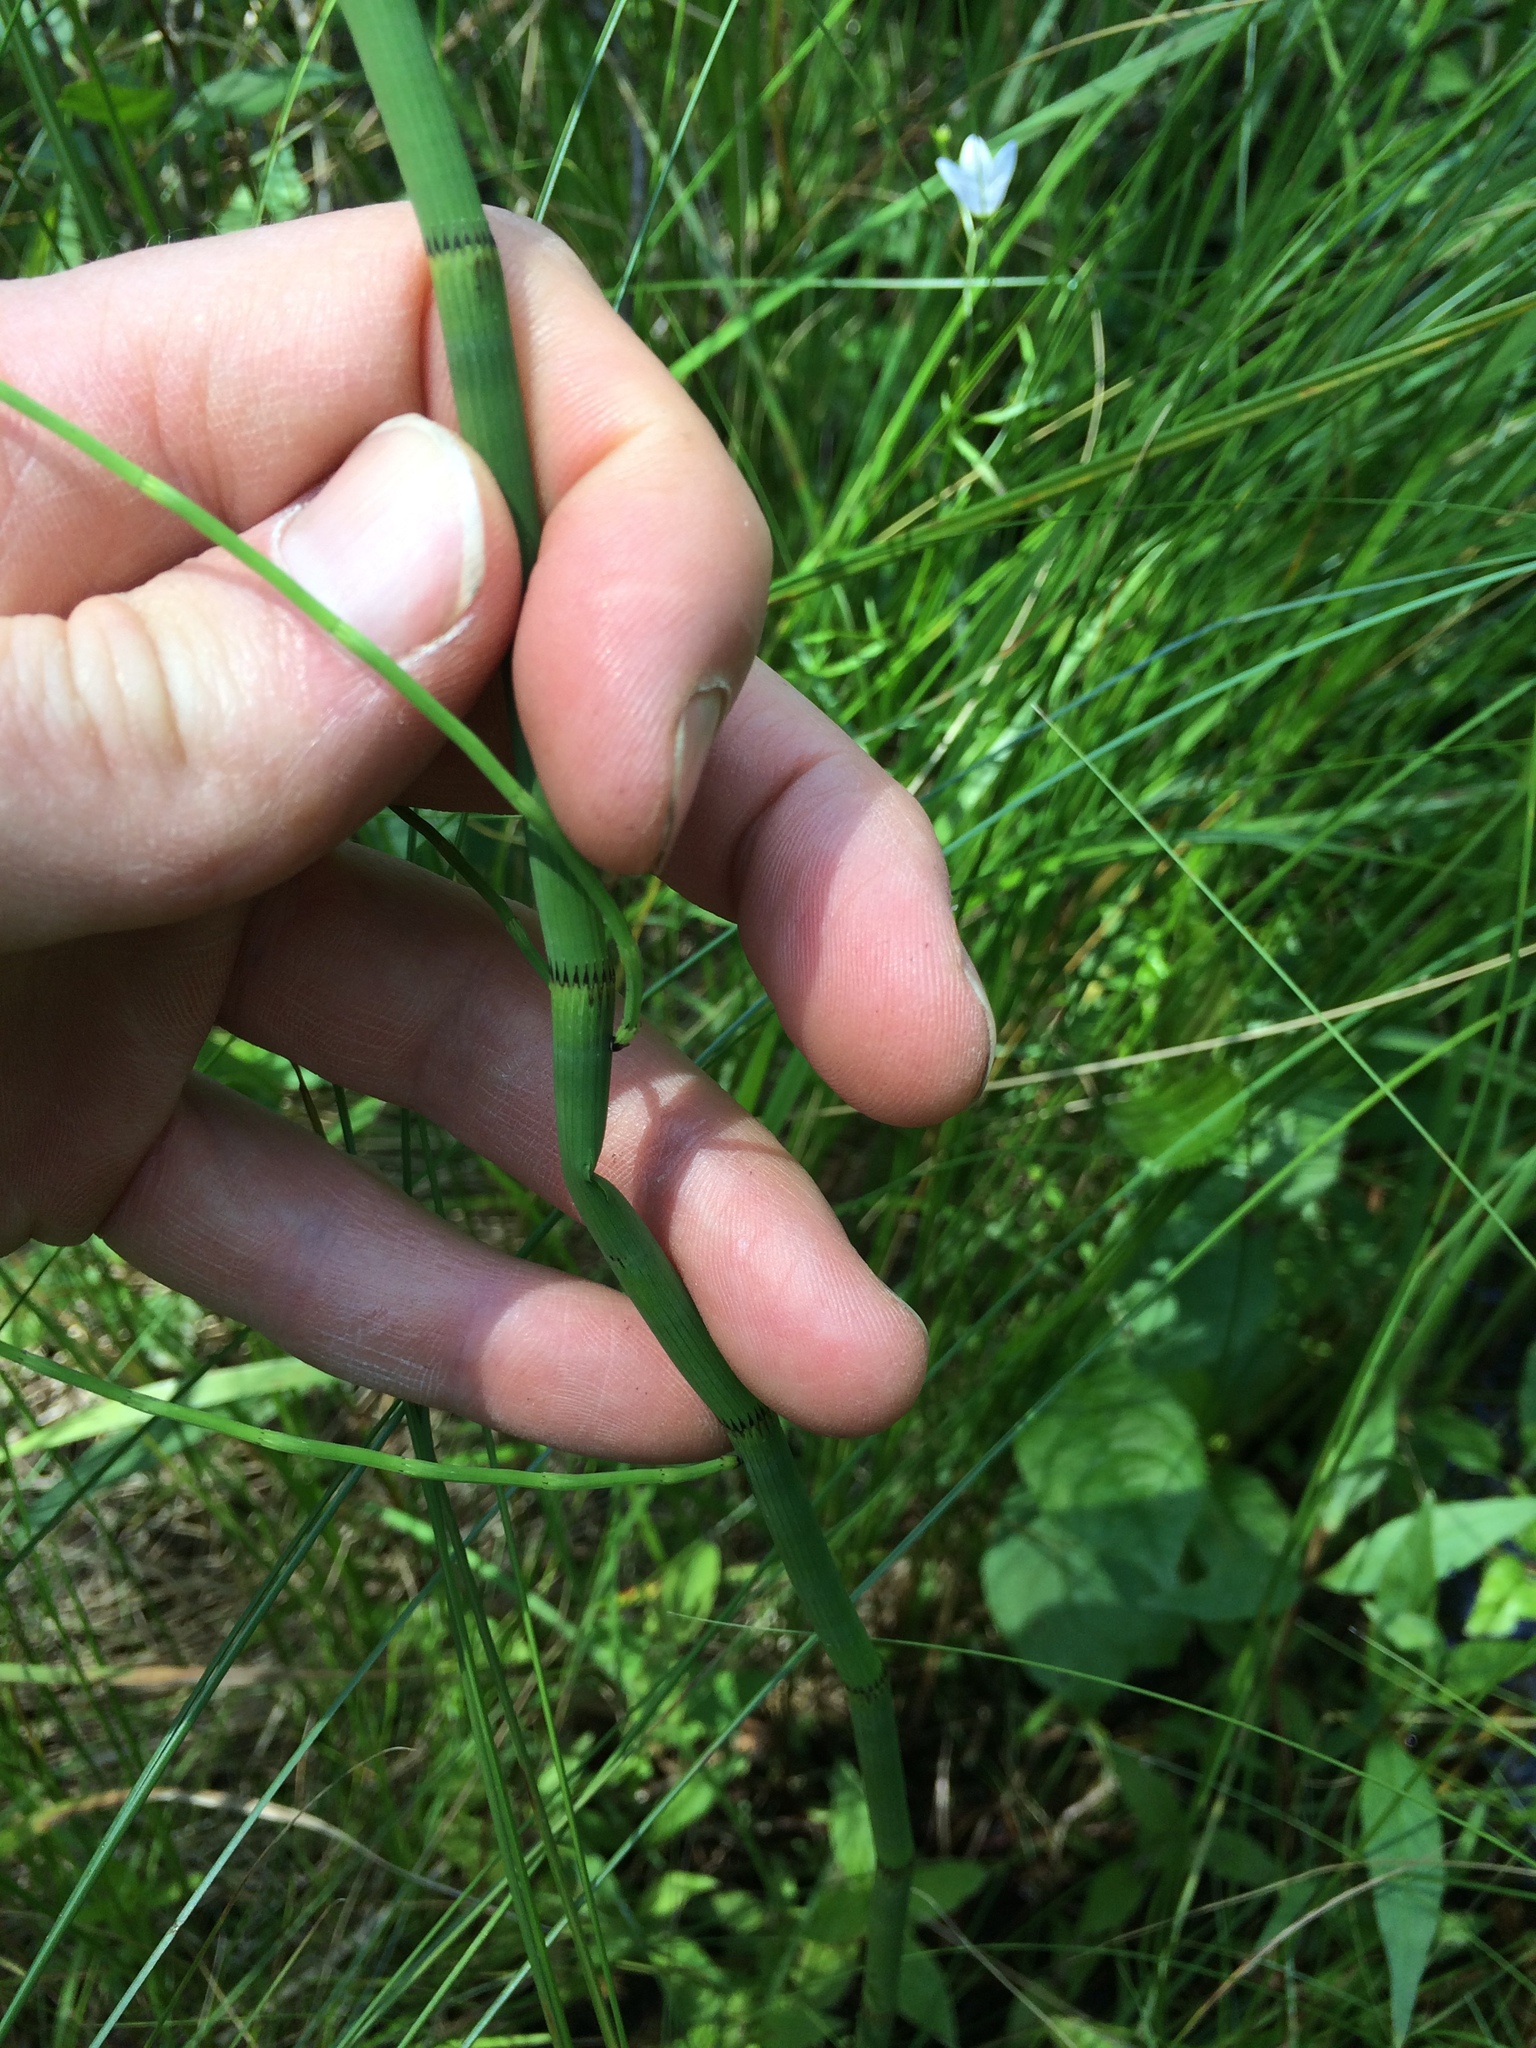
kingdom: Plantae
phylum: Tracheophyta
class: Polypodiopsida
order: Equisetales
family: Equisetaceae
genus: Equisetum
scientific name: Equisetum fluviatile
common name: Water horsetail
